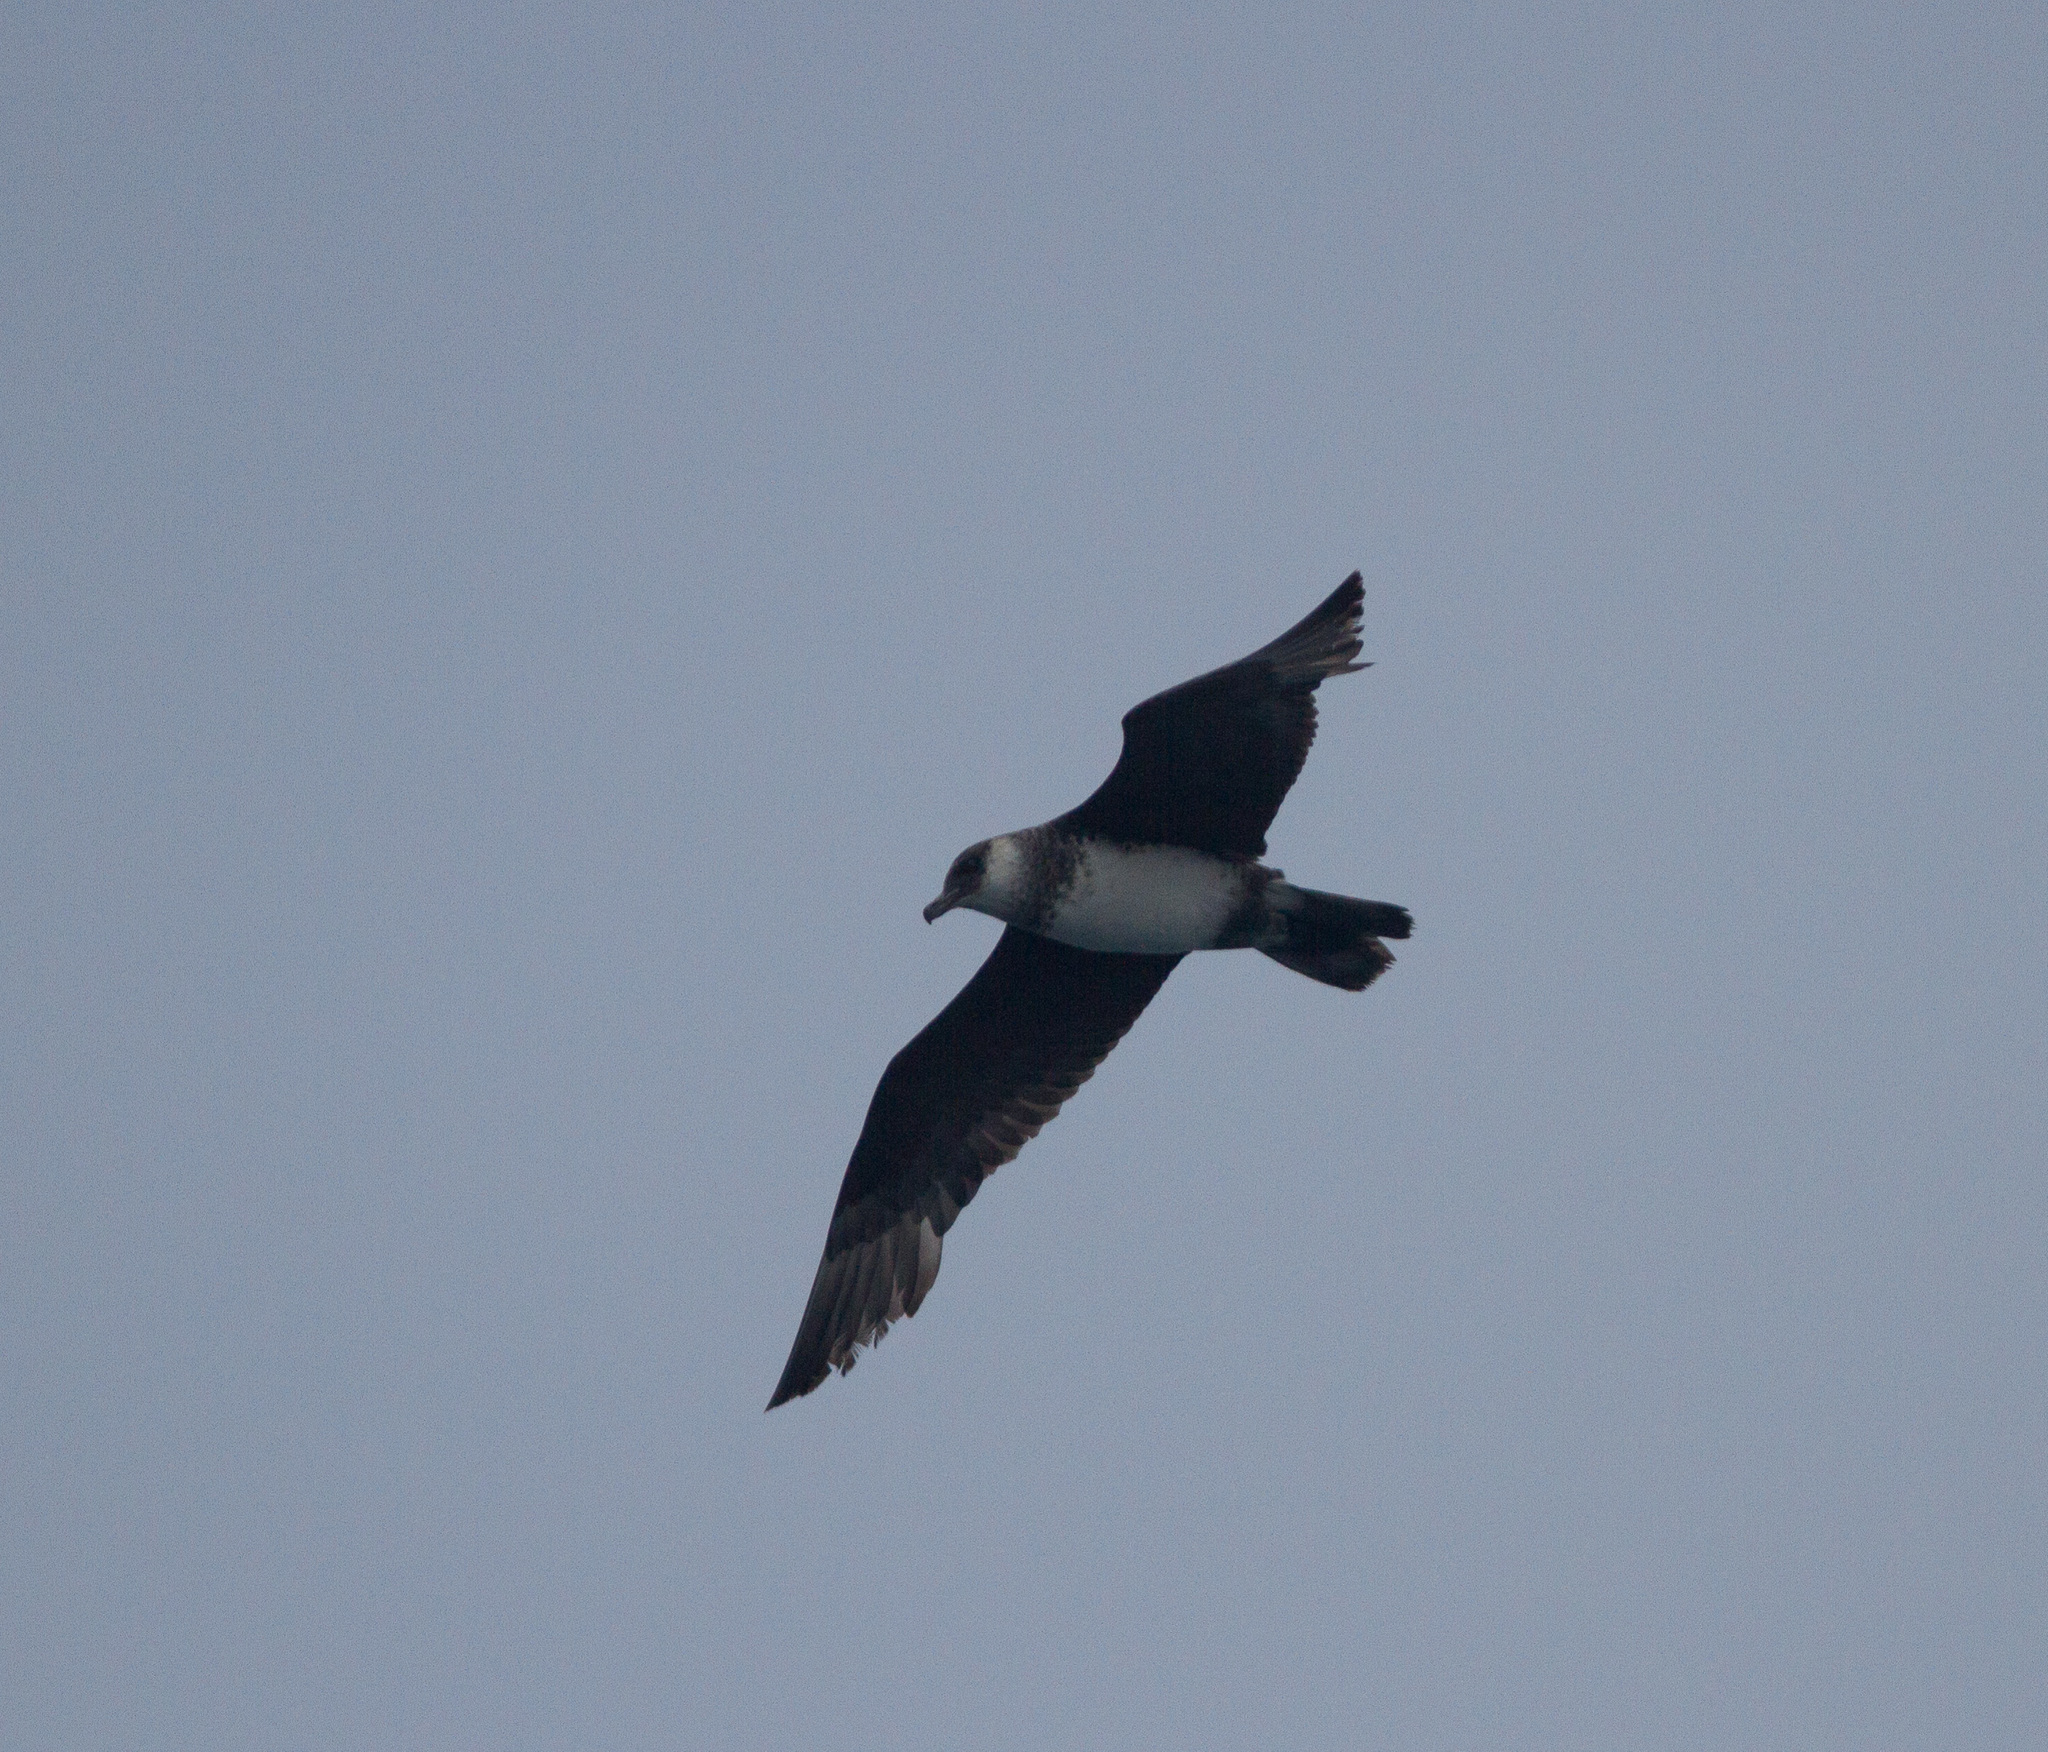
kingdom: Animalia
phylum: Chordata
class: Aves
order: Charadriiformes
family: Stercorariidae
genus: Stercorarius
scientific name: Stercorarius pomarinus
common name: Pomarine jaeger
